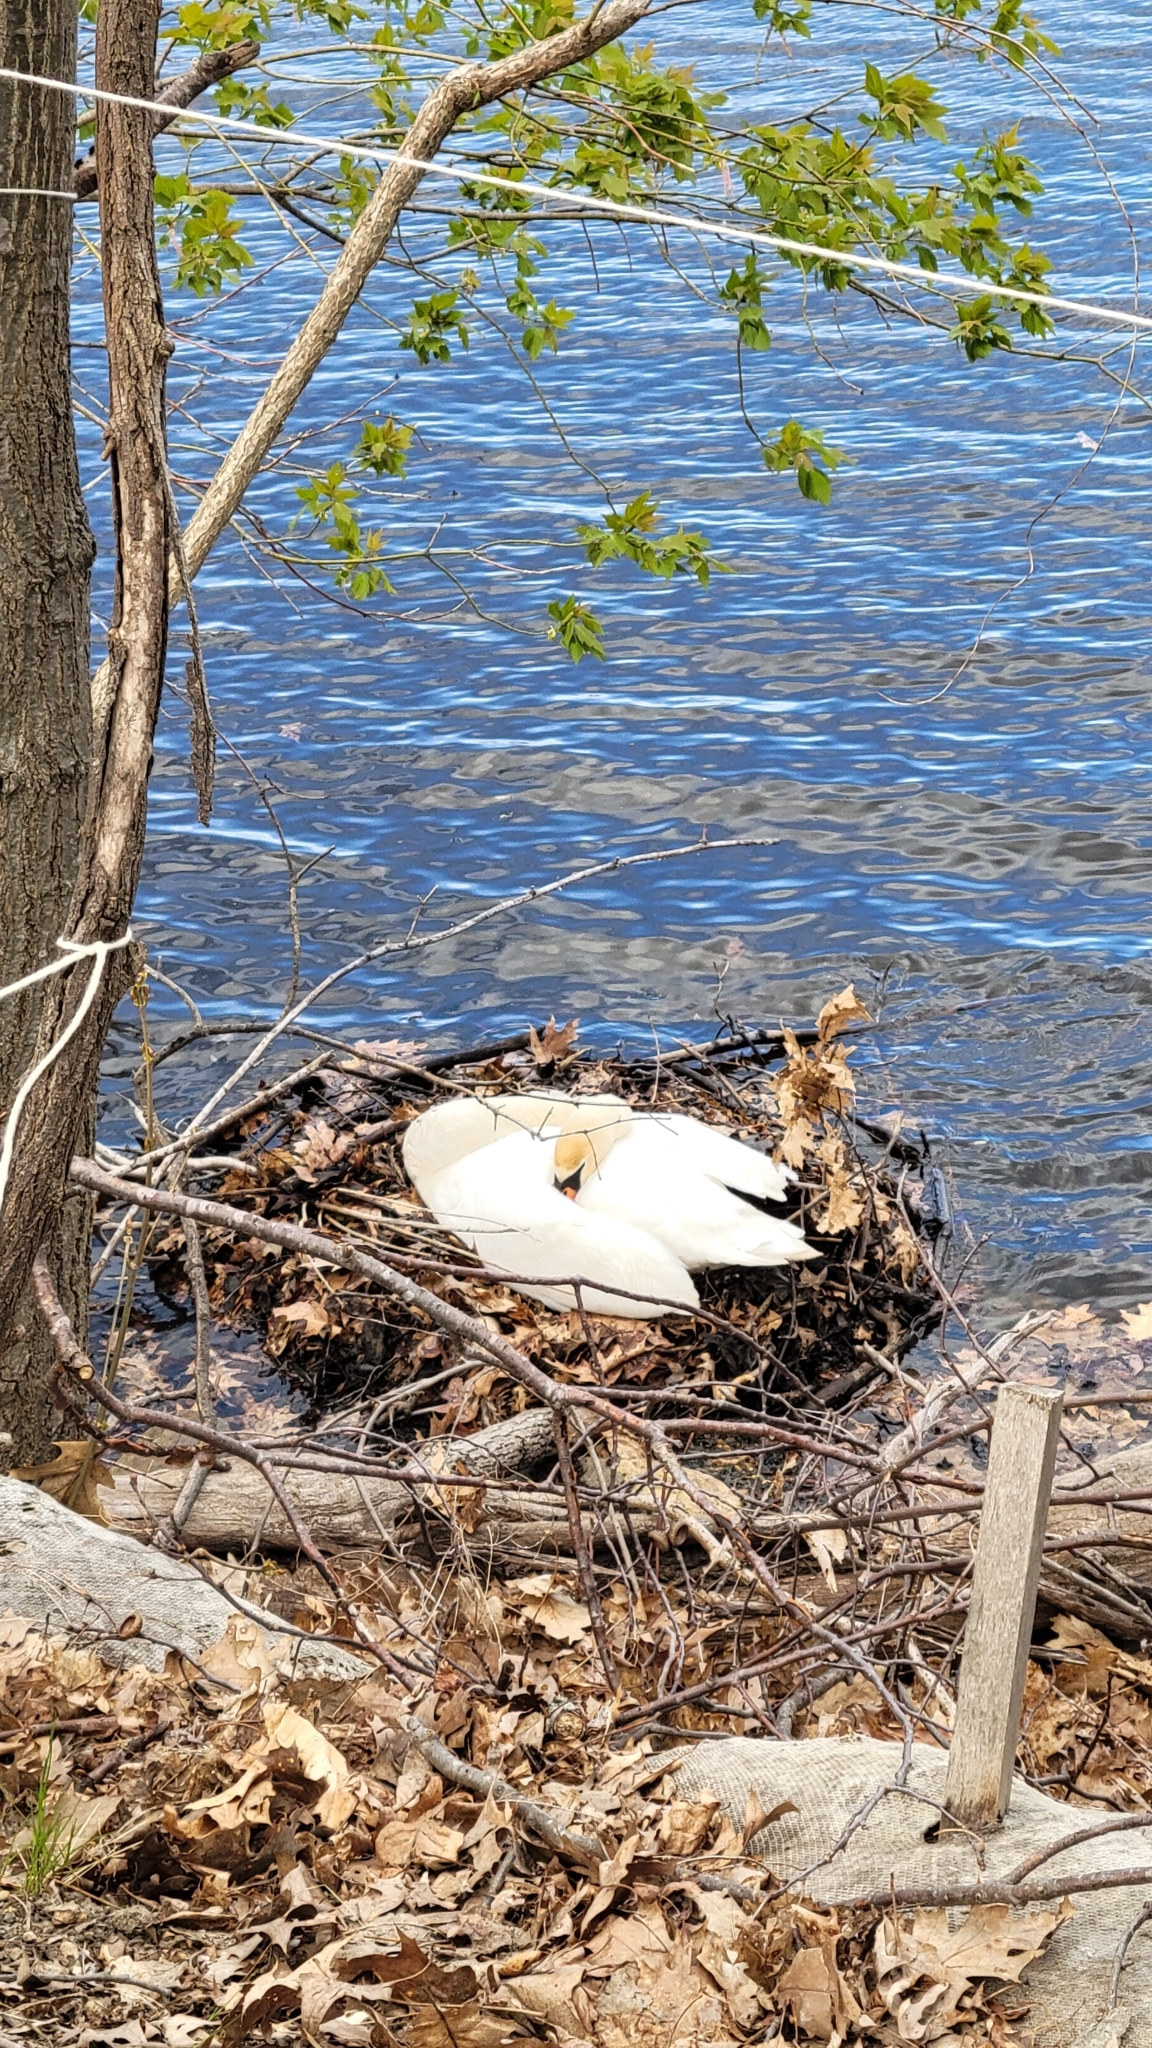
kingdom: Animalia
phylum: Chordata
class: Aves
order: Anseriformes
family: Anatidae
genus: Cygnus
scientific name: Cygnus olor
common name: Mute swan
